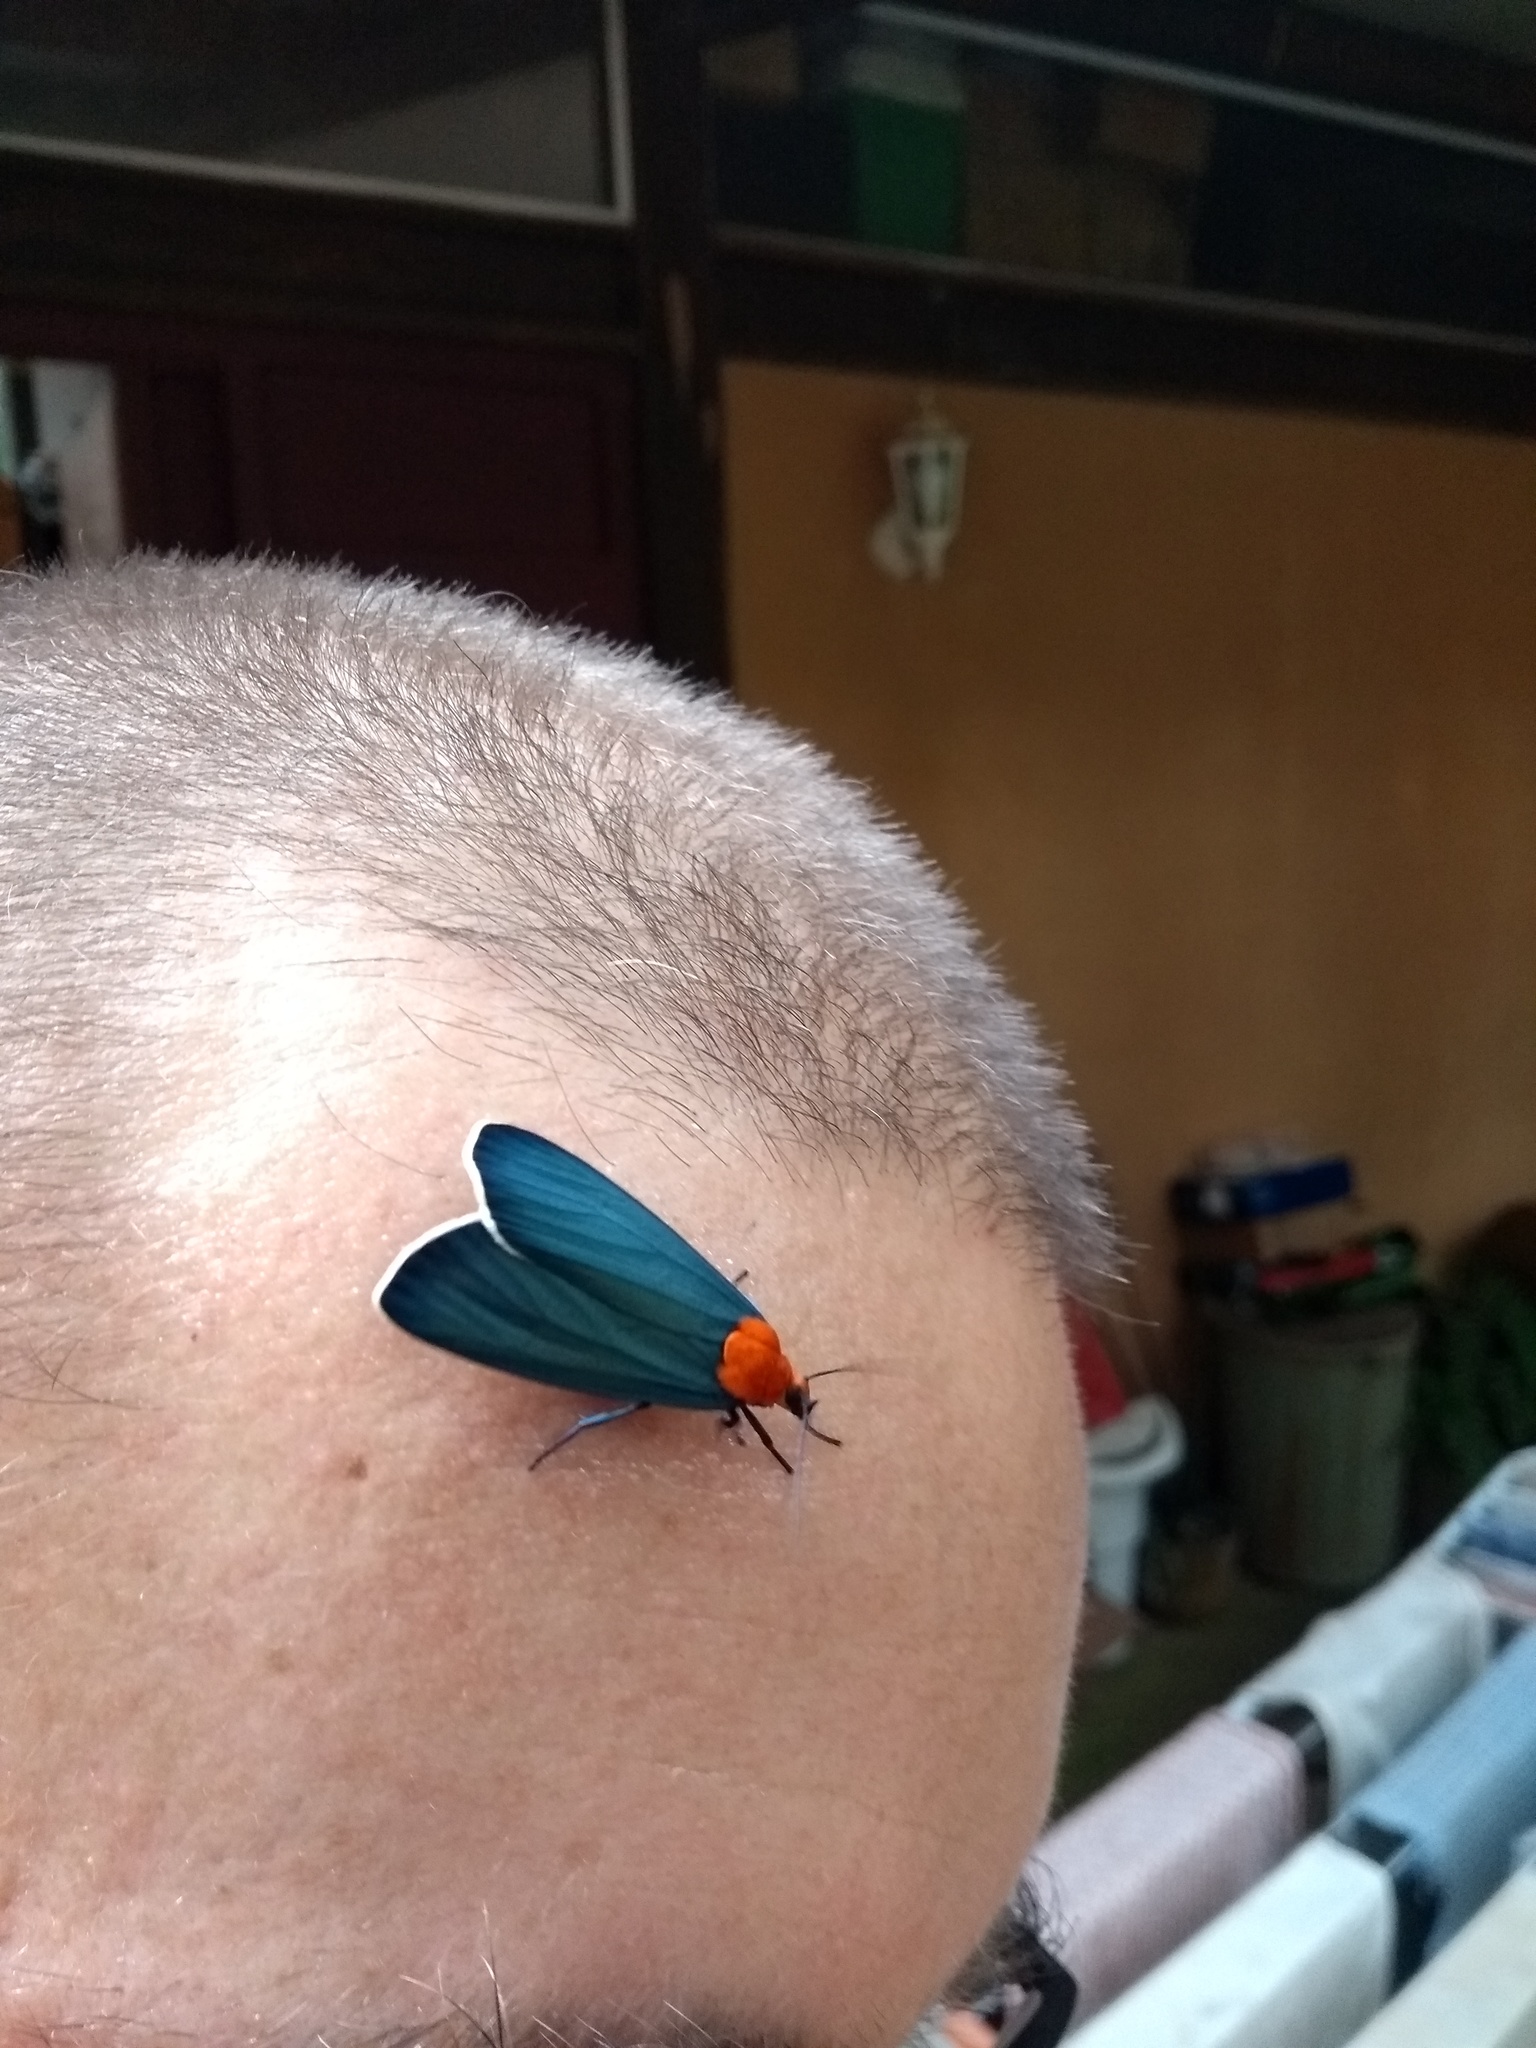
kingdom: Animalia
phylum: Arthropoda
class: Insecta
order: Lepidoptera
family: Erebidae
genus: Apistosia
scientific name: Apistosia judas
